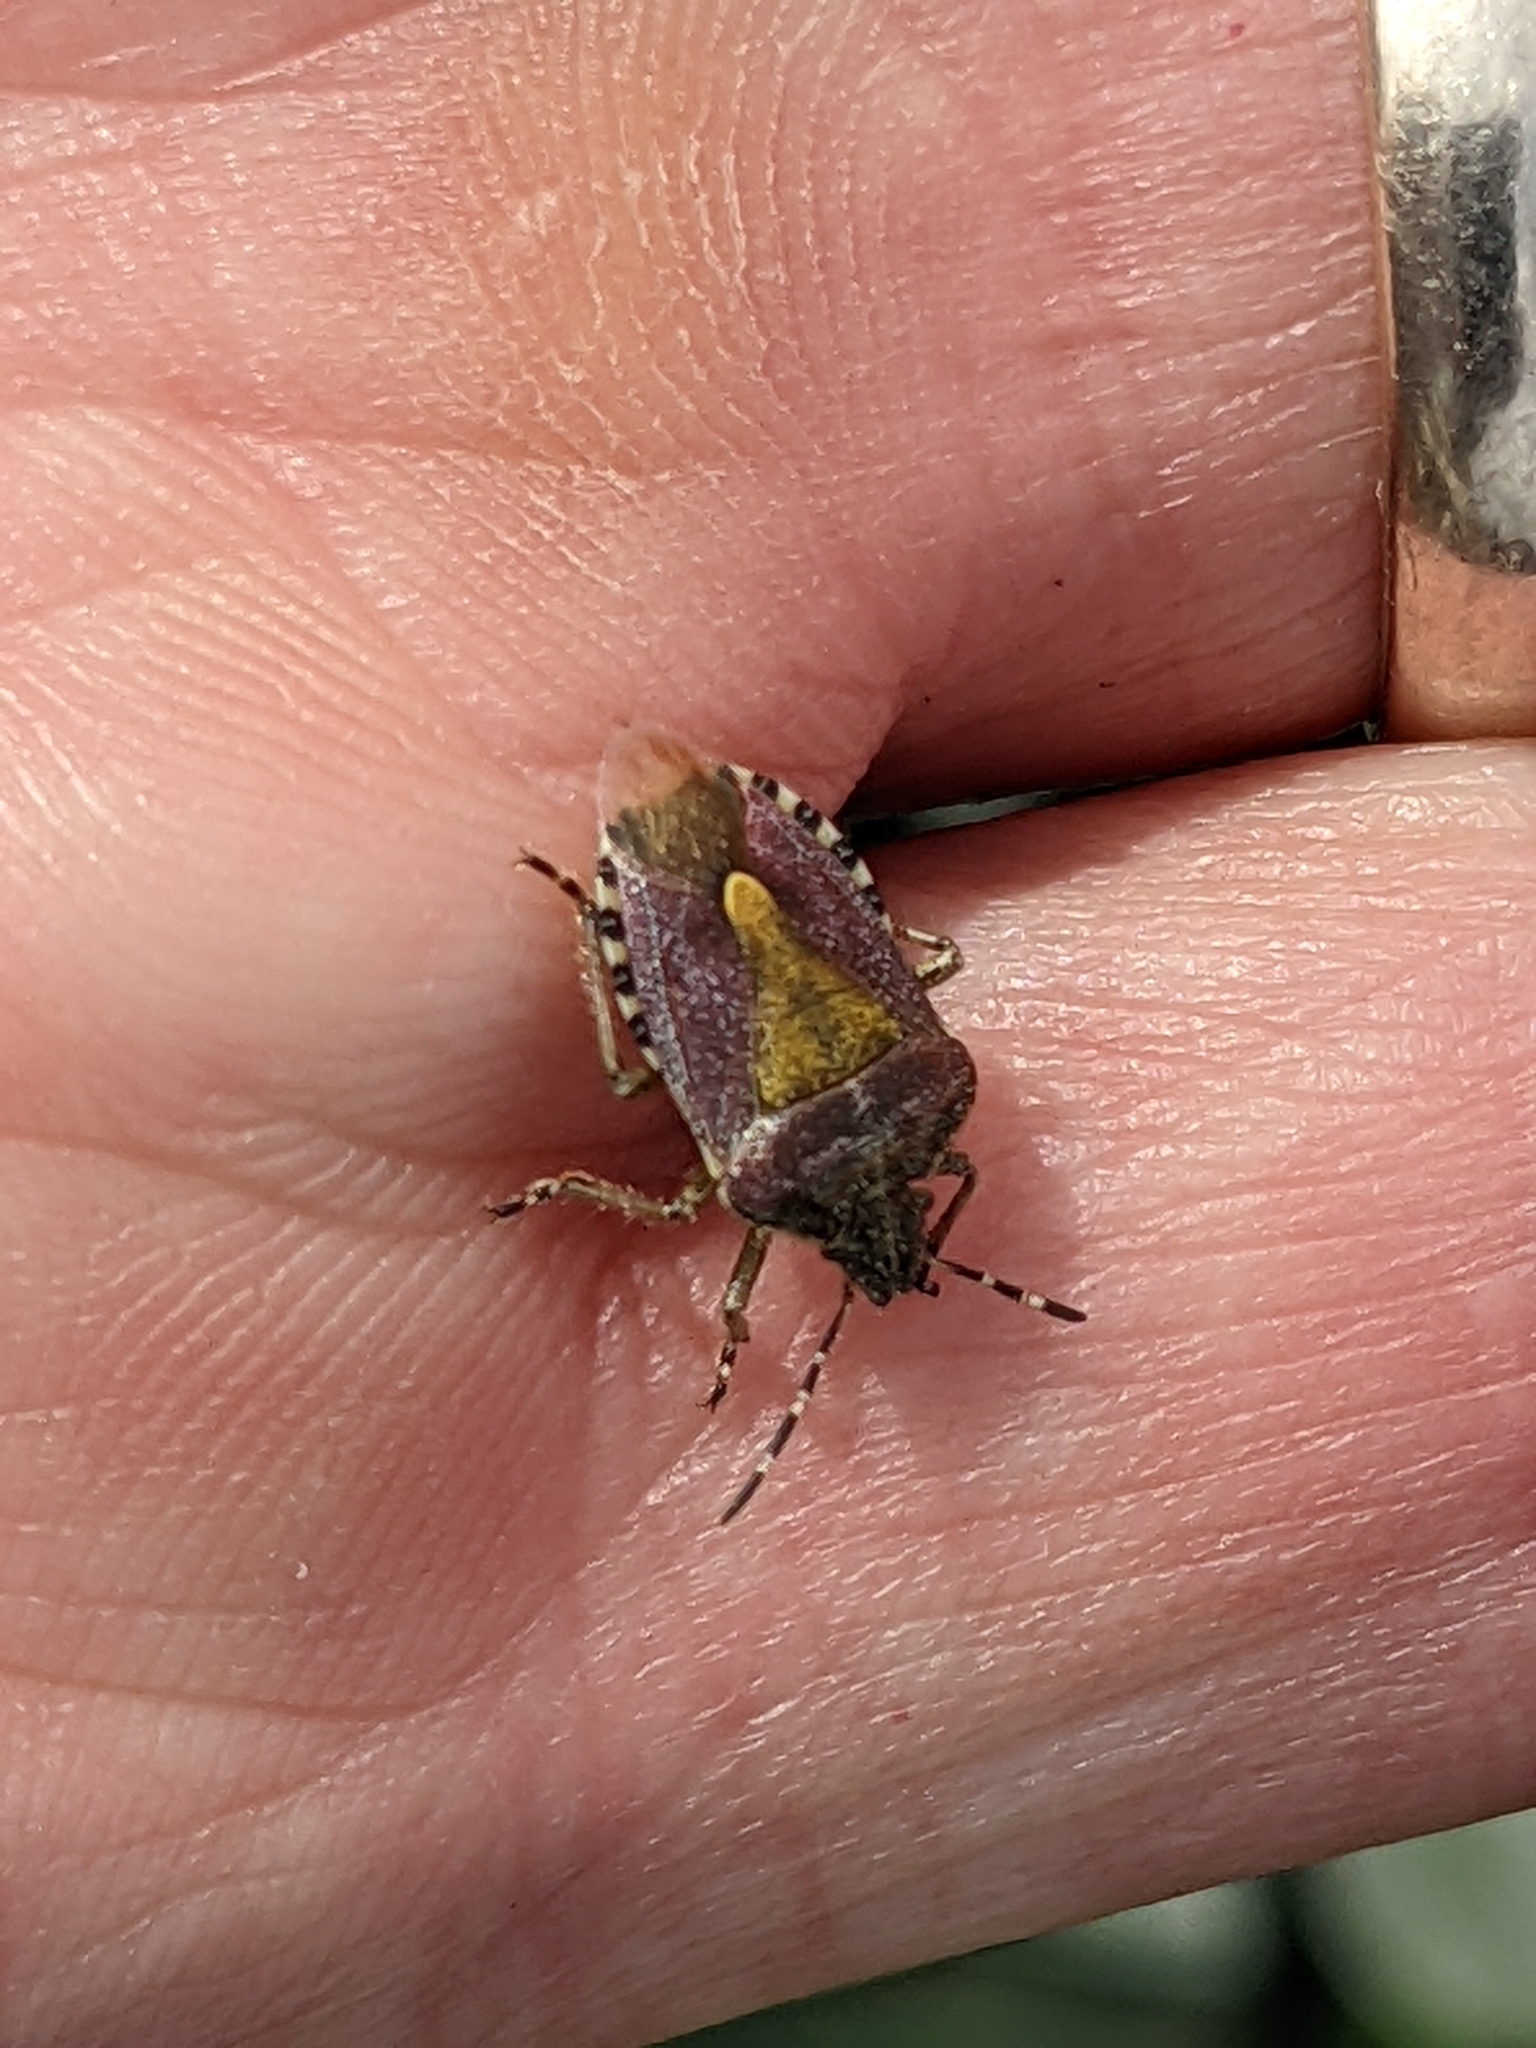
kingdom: Animalia
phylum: Arthropoda
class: Insecta
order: Hemiptera
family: Pentatomidae
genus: Dolycoris
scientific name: Dolycoris baccarum
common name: Sloe bug
